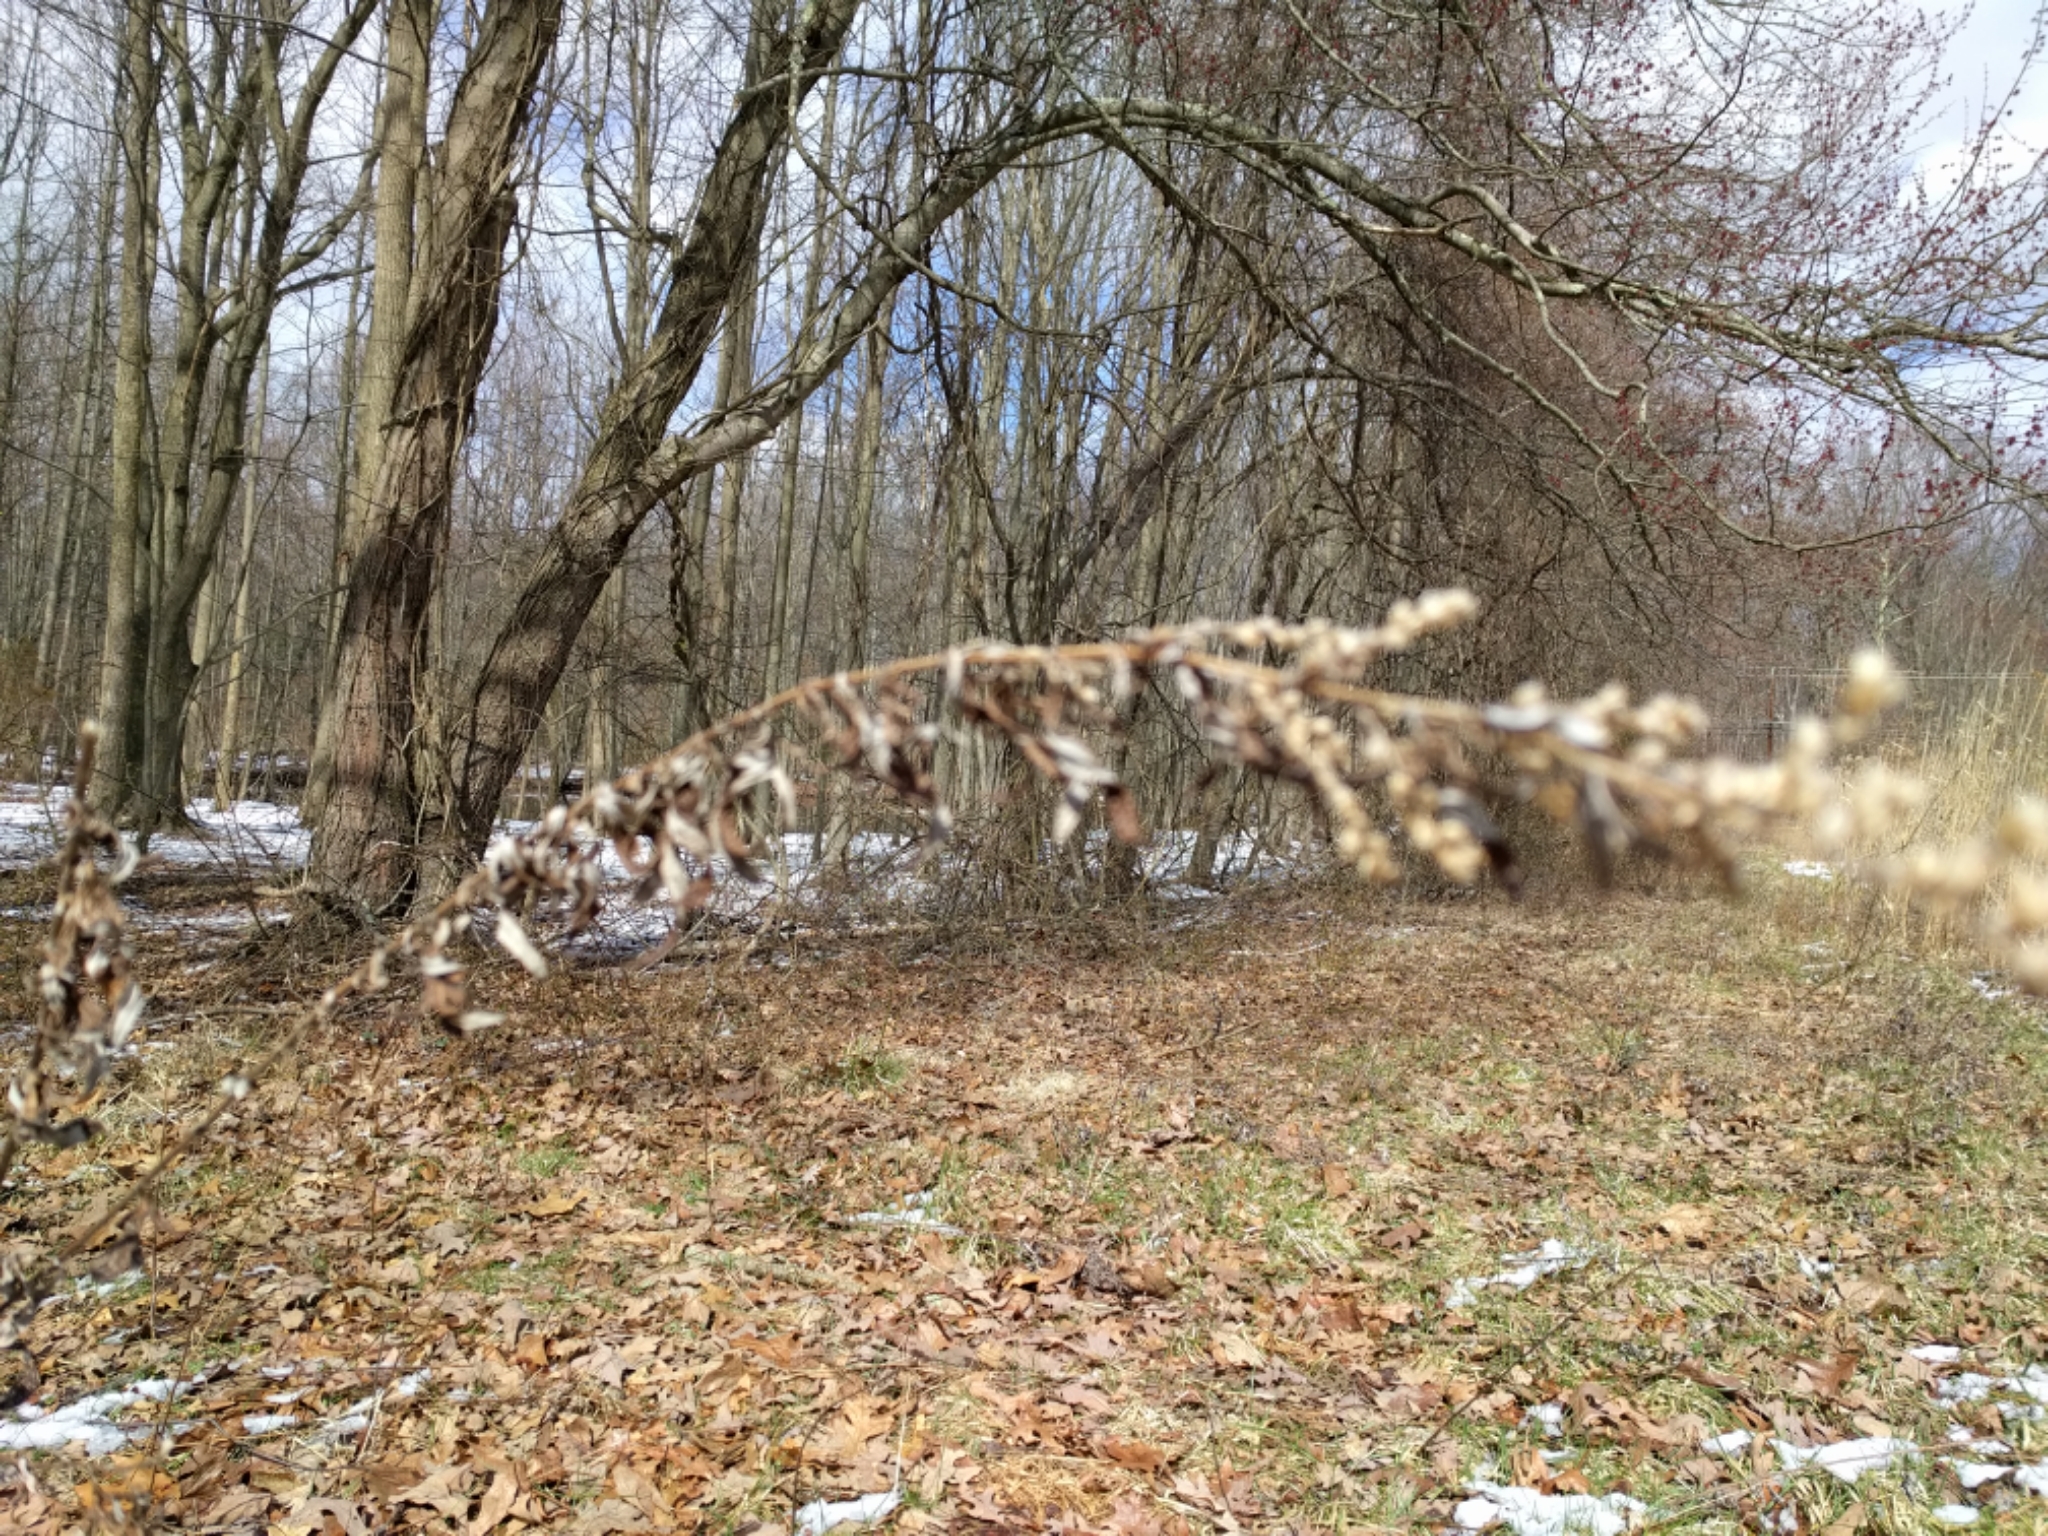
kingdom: Plantae
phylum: Tracheophyta
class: Magnoliopsida
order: Asterales
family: Asteraceae
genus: Artemisia
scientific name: Artemisia vulgaris
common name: Mugwort
